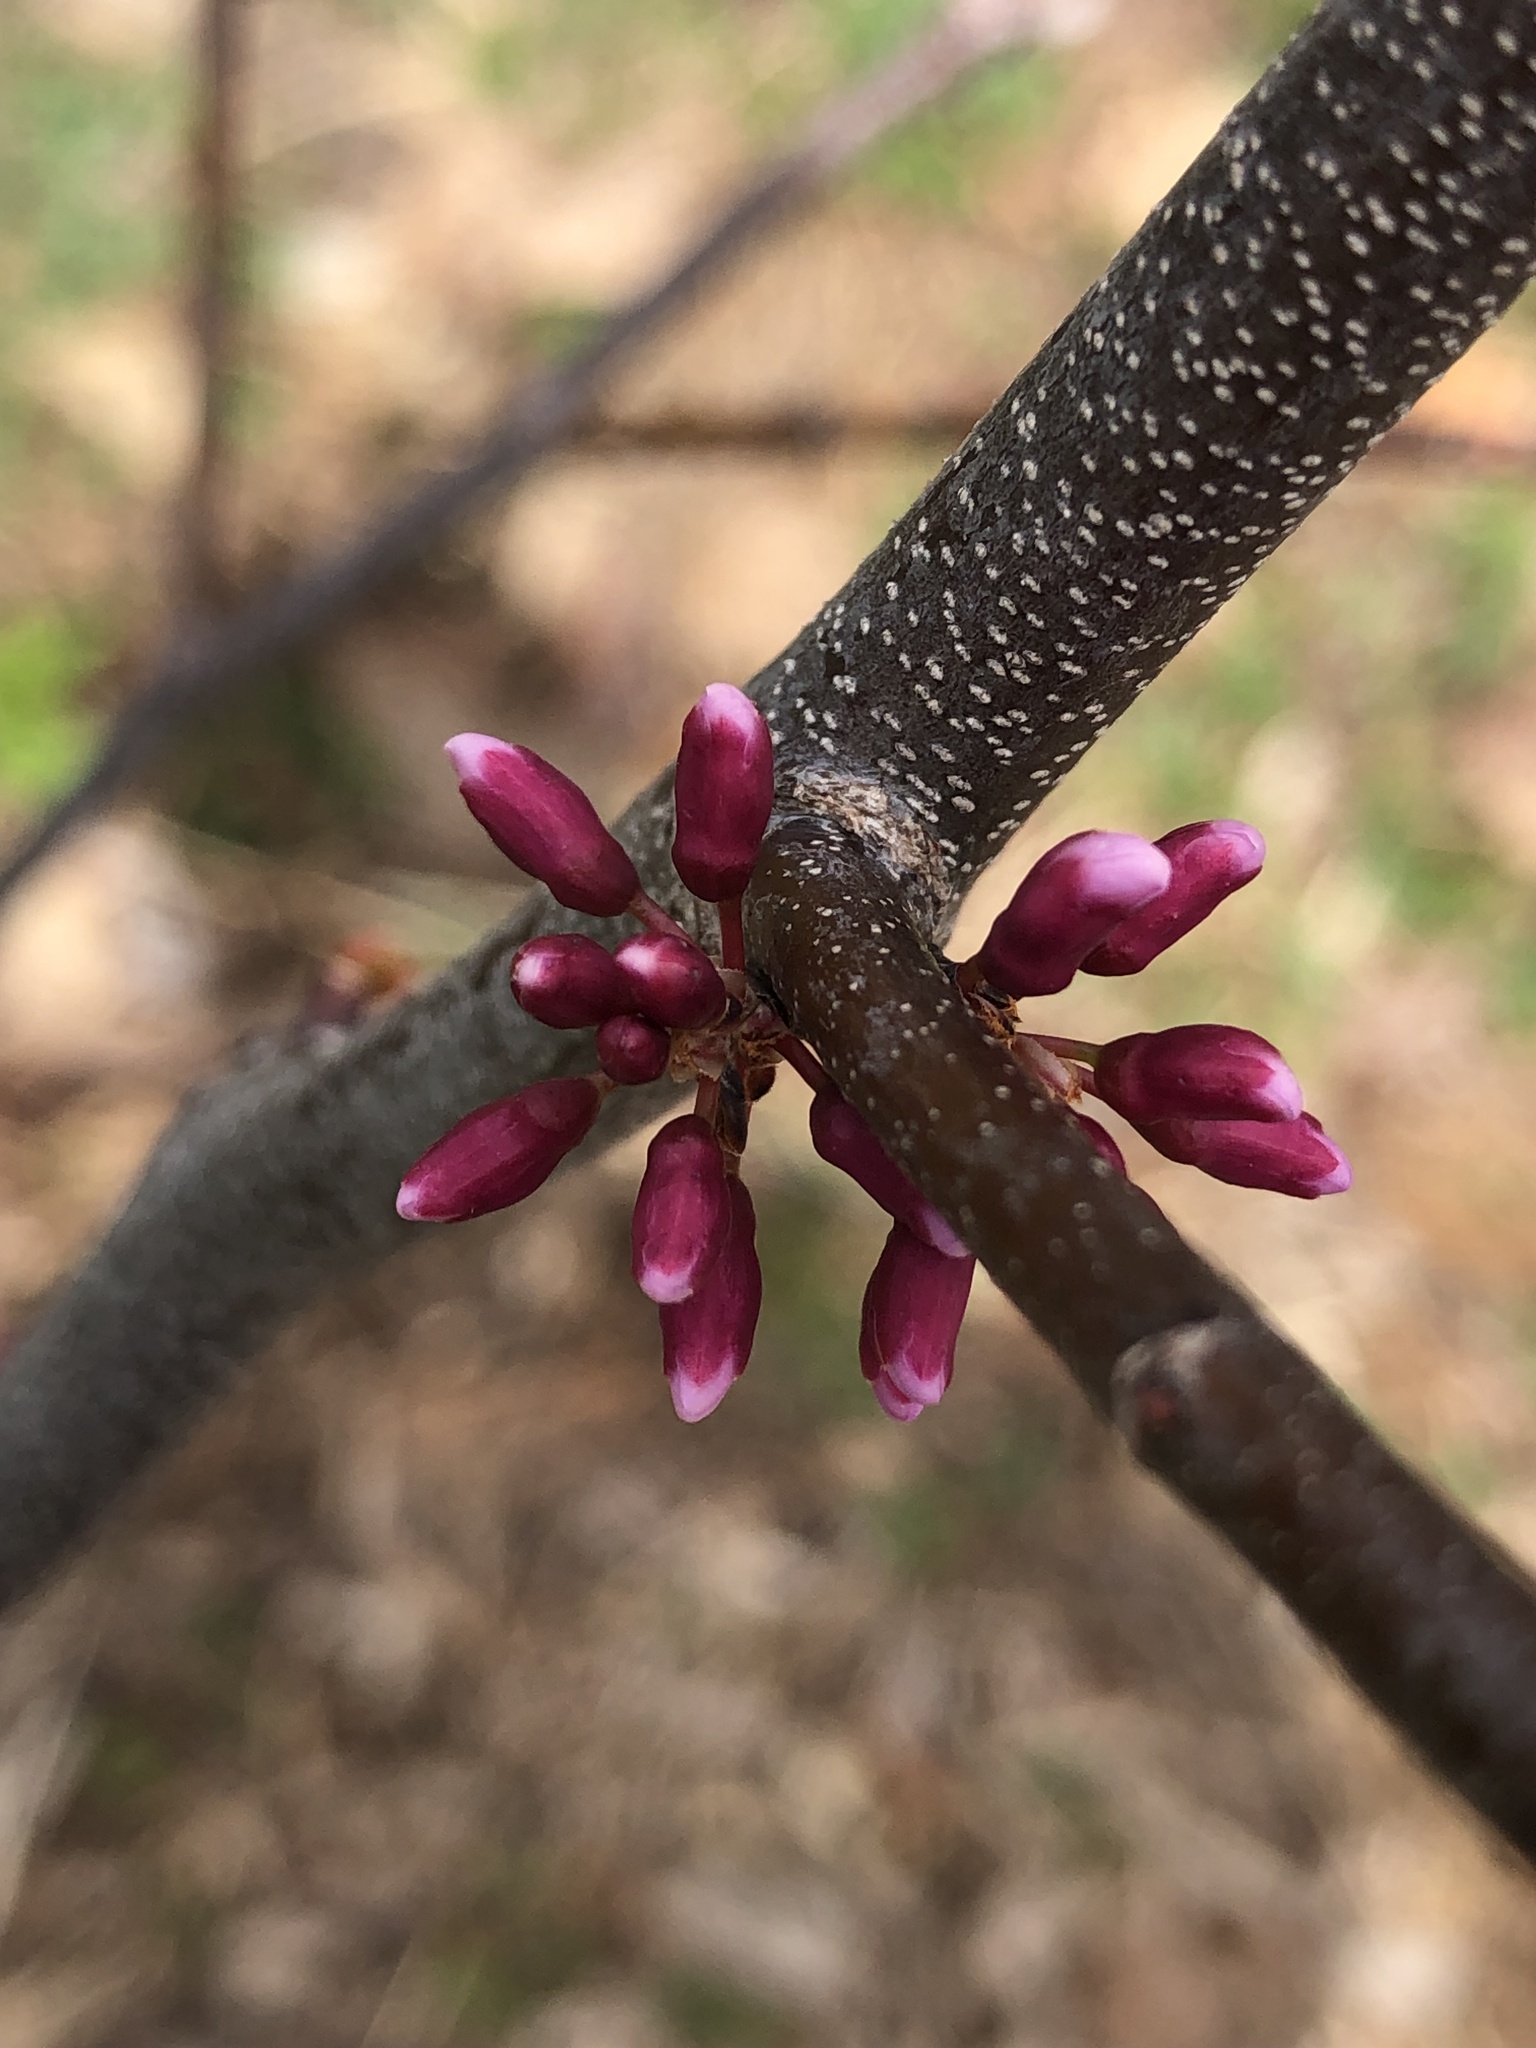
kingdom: Plantae
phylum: Tracheophyta
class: Magnoliopsida
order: Fabales
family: Fabaceae
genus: Cercis
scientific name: Cercis canadensis
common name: Eastern redbud
